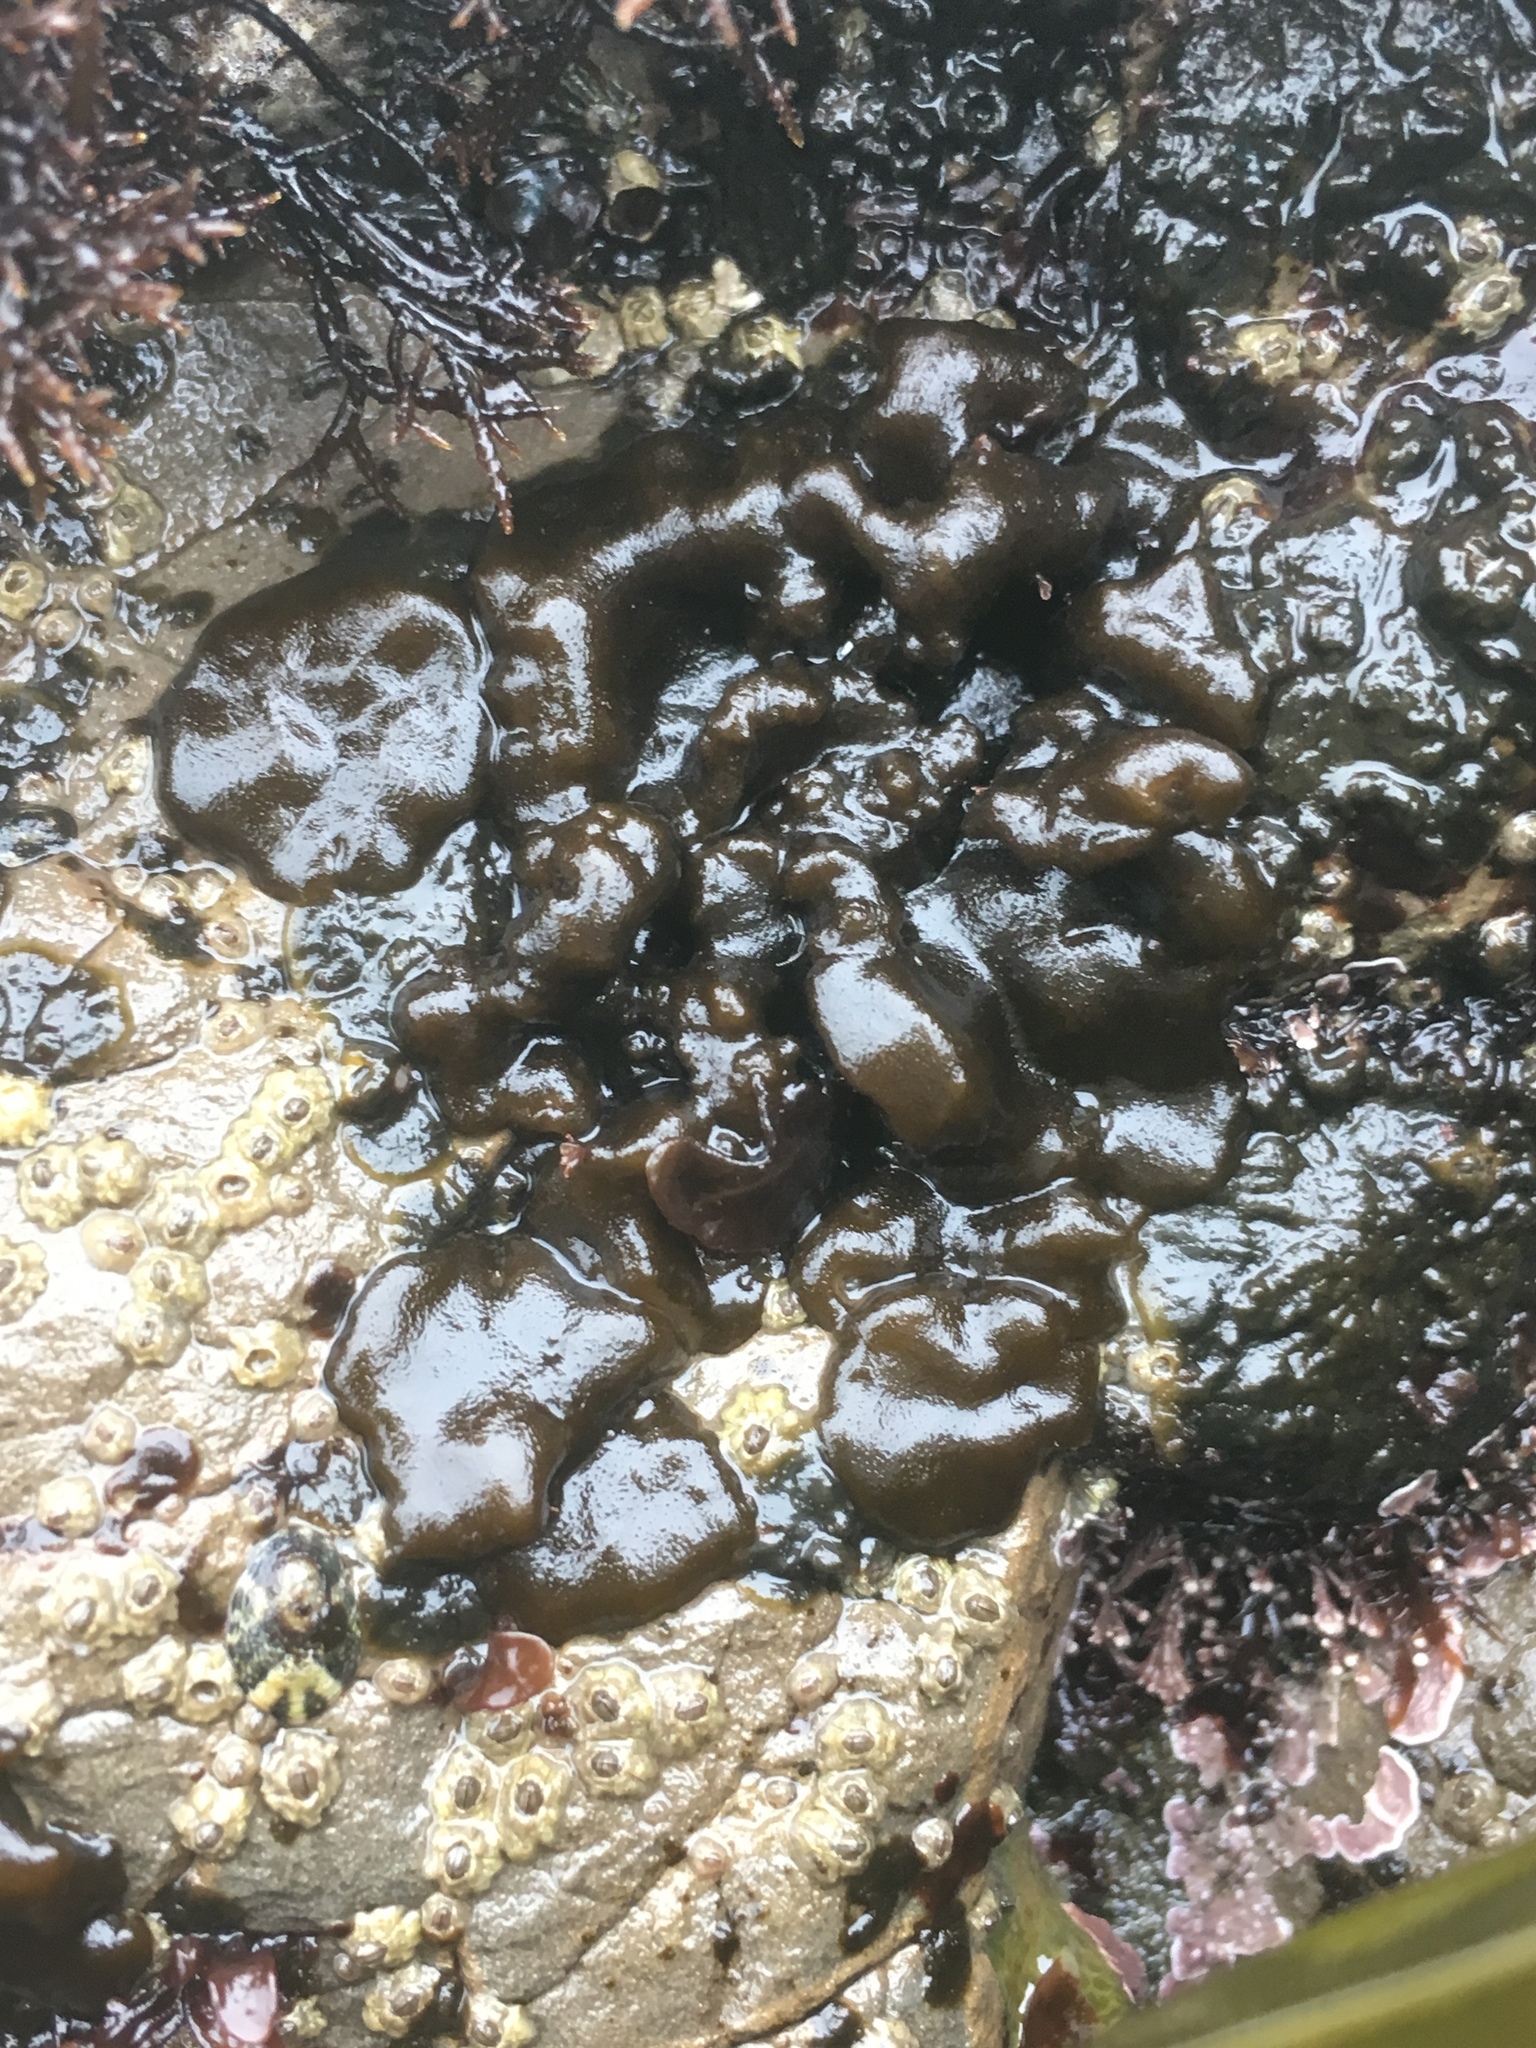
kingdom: Chromista
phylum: Ochrophyta
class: Phaeophyceae
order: Ectocarpales
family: Petrospongiaceae
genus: Petrospongium
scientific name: Petrospongium rugosum
